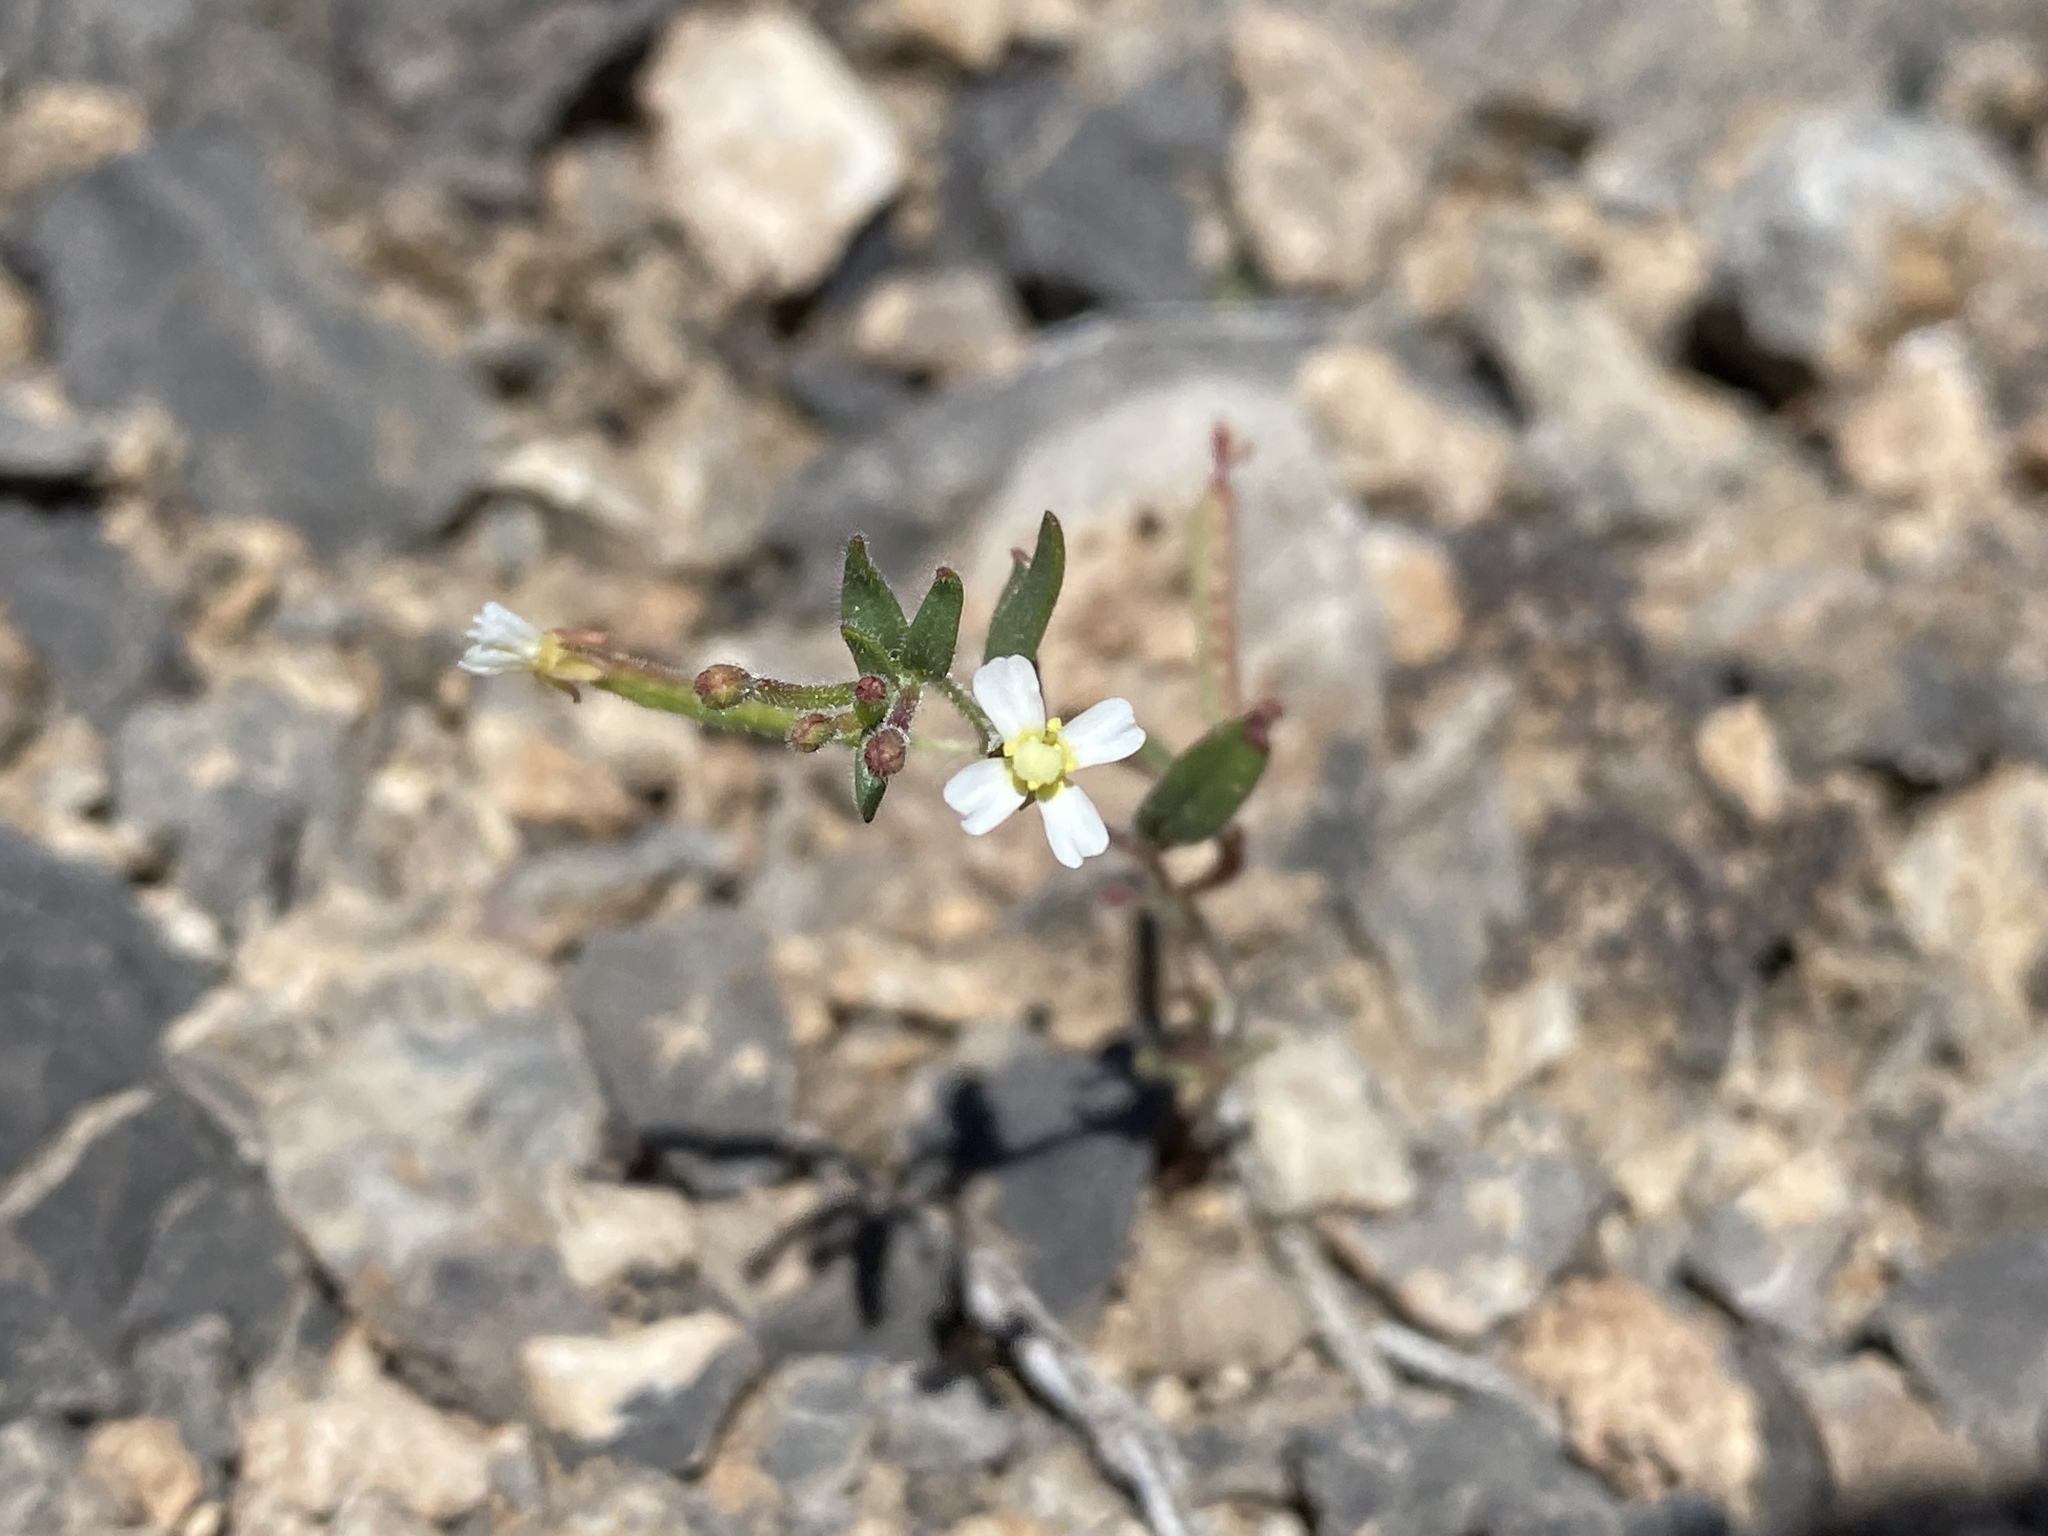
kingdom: Plantae
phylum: Tracheophyta
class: Magnoliopsida
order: Myrtales
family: Onagraceae
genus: Chylismiella
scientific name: Chylismiella pterosperma
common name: Wingfruit suncup
